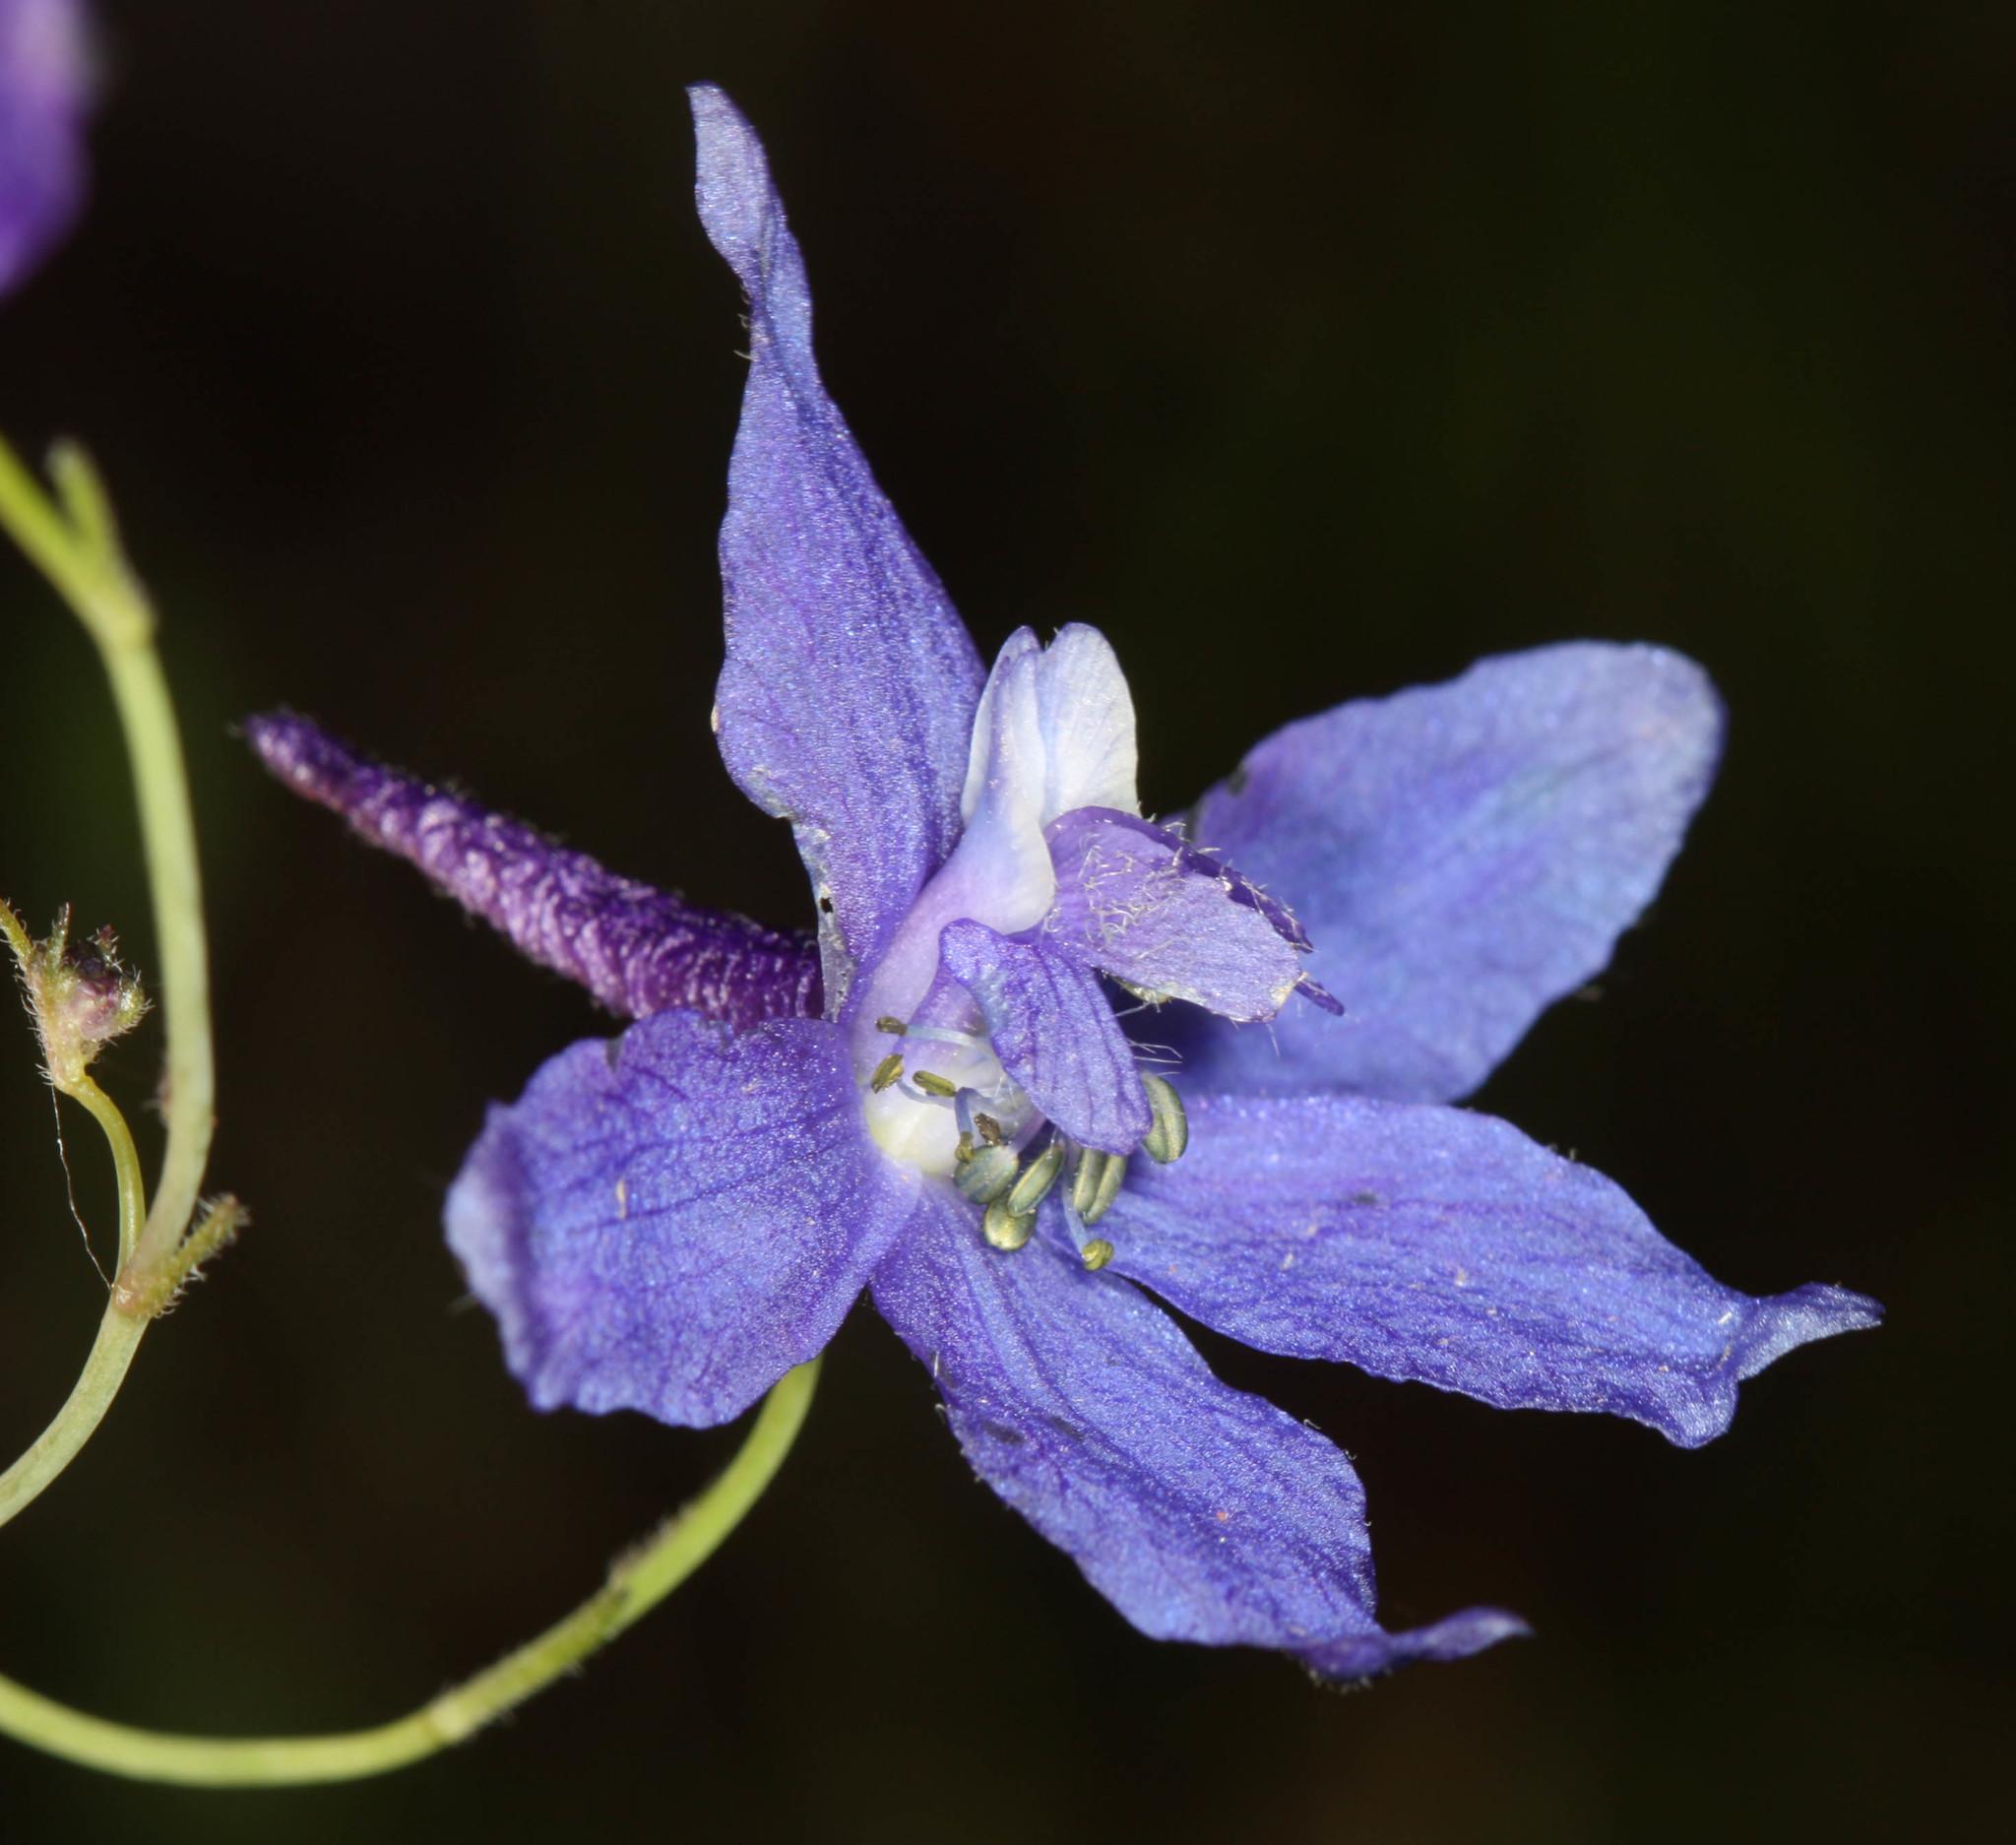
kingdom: Plantae
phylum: Tracheophyta
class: Magnoliopsida
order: Ranunculales
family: Ranunculaceae
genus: Delphinium
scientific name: Delphinium patens
